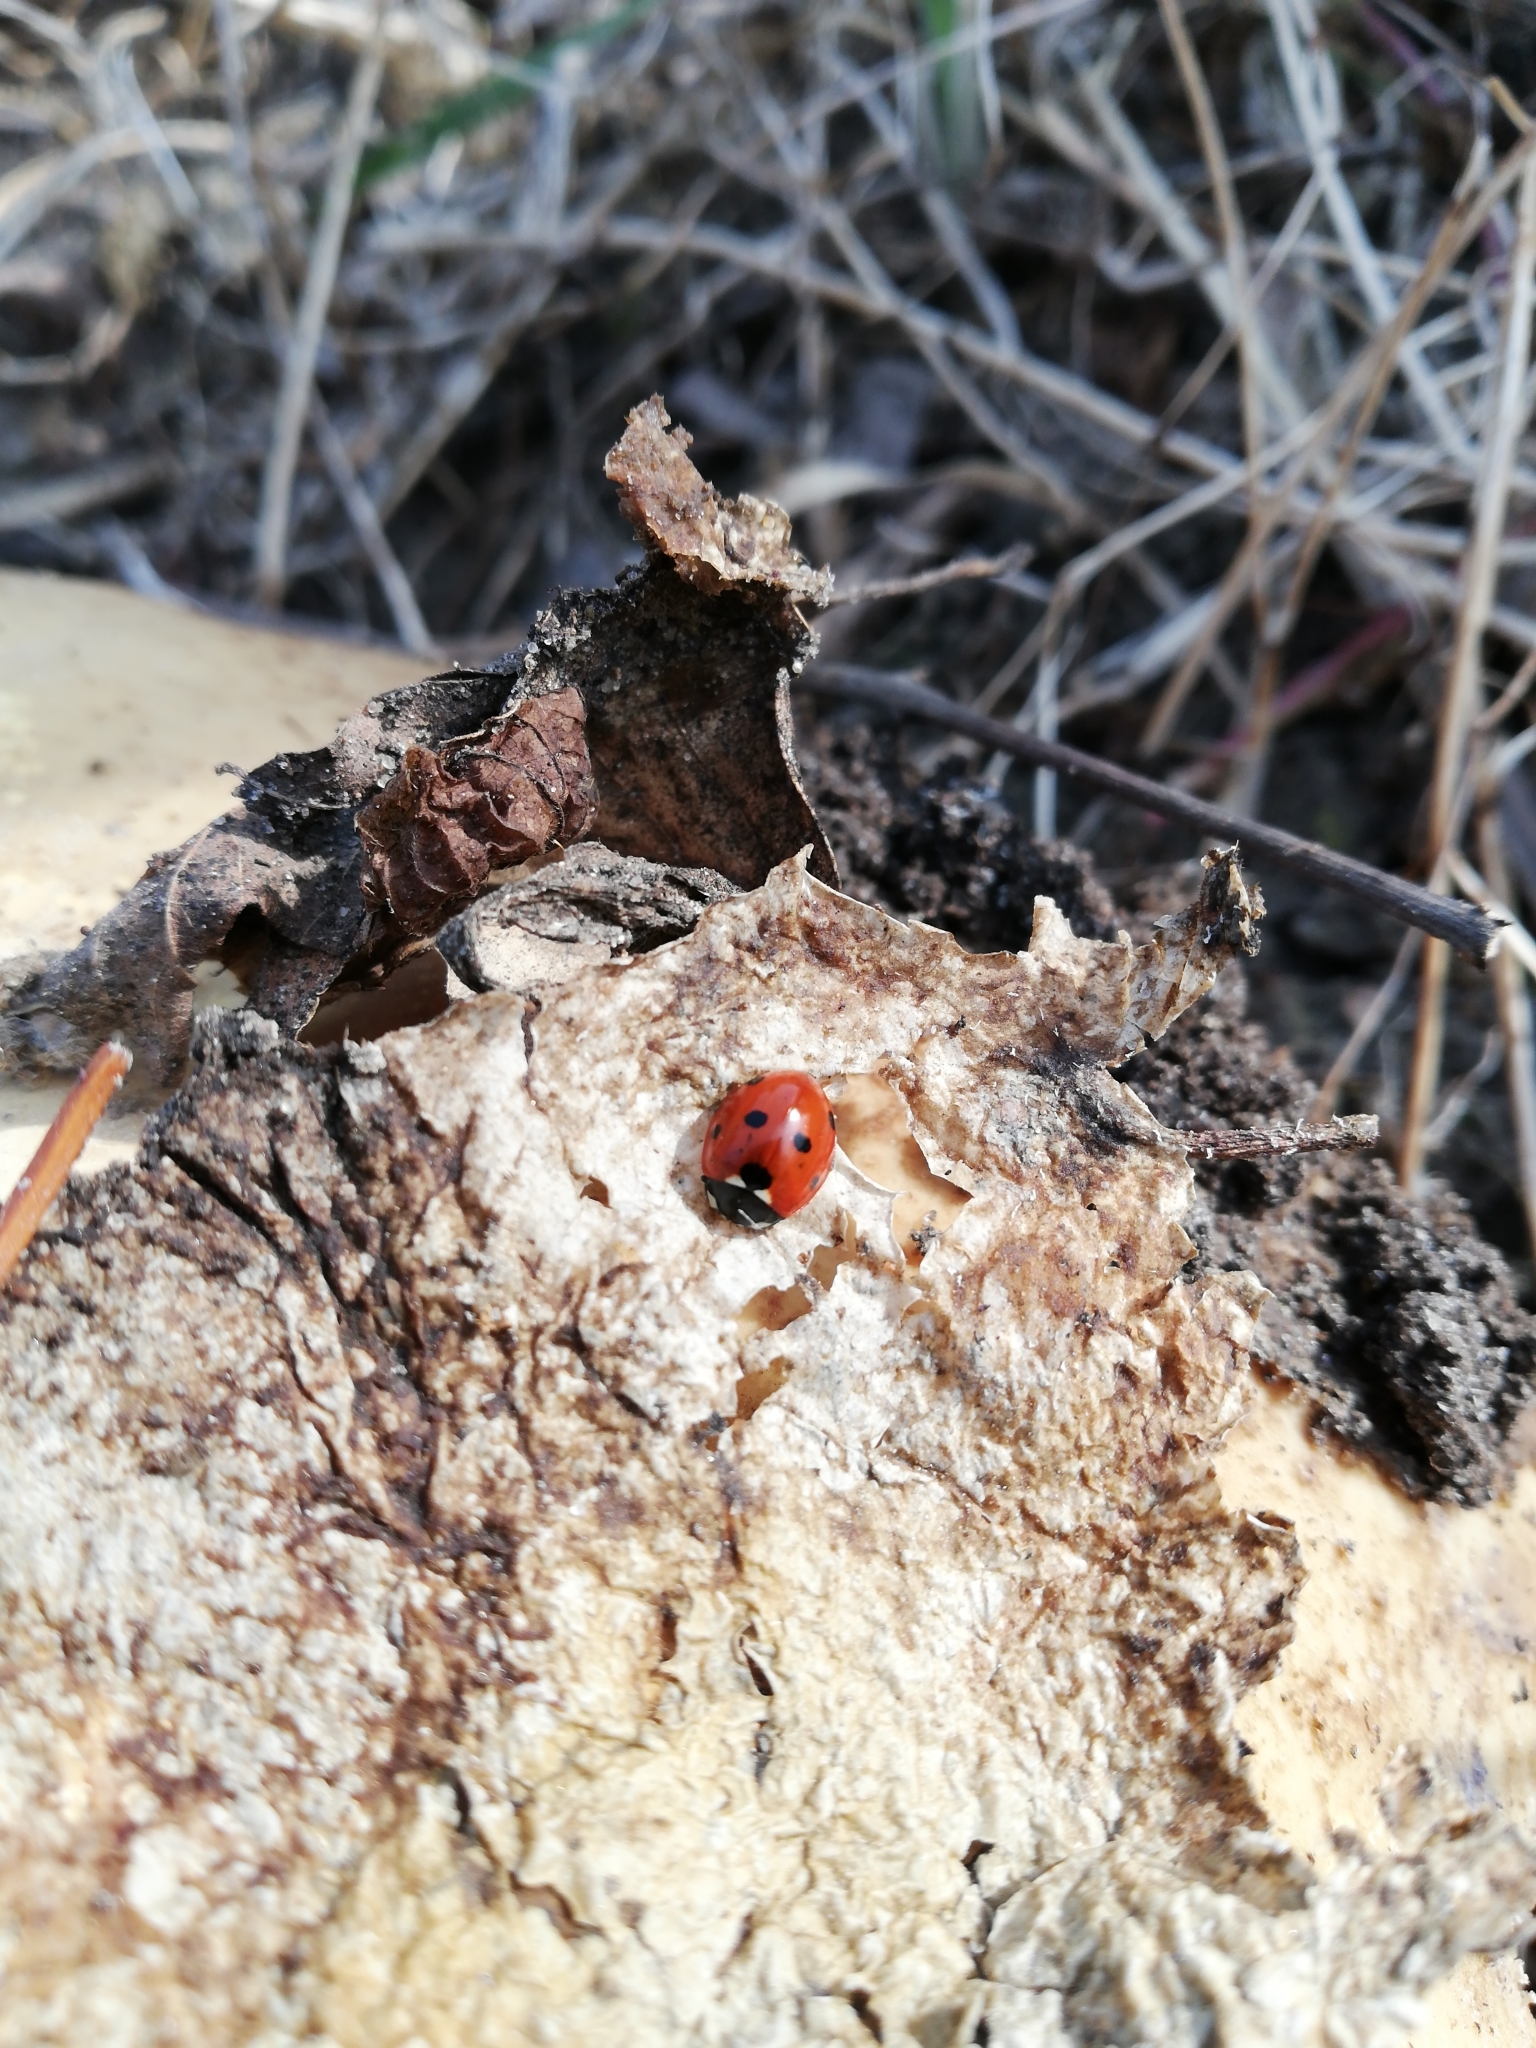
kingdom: Animalia
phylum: Arthropoda
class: Insecta
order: Coleoptera
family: Coccinellidae
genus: Coccinella
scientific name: Coccinella septempunctata
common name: Sevenspotted lady beetle
